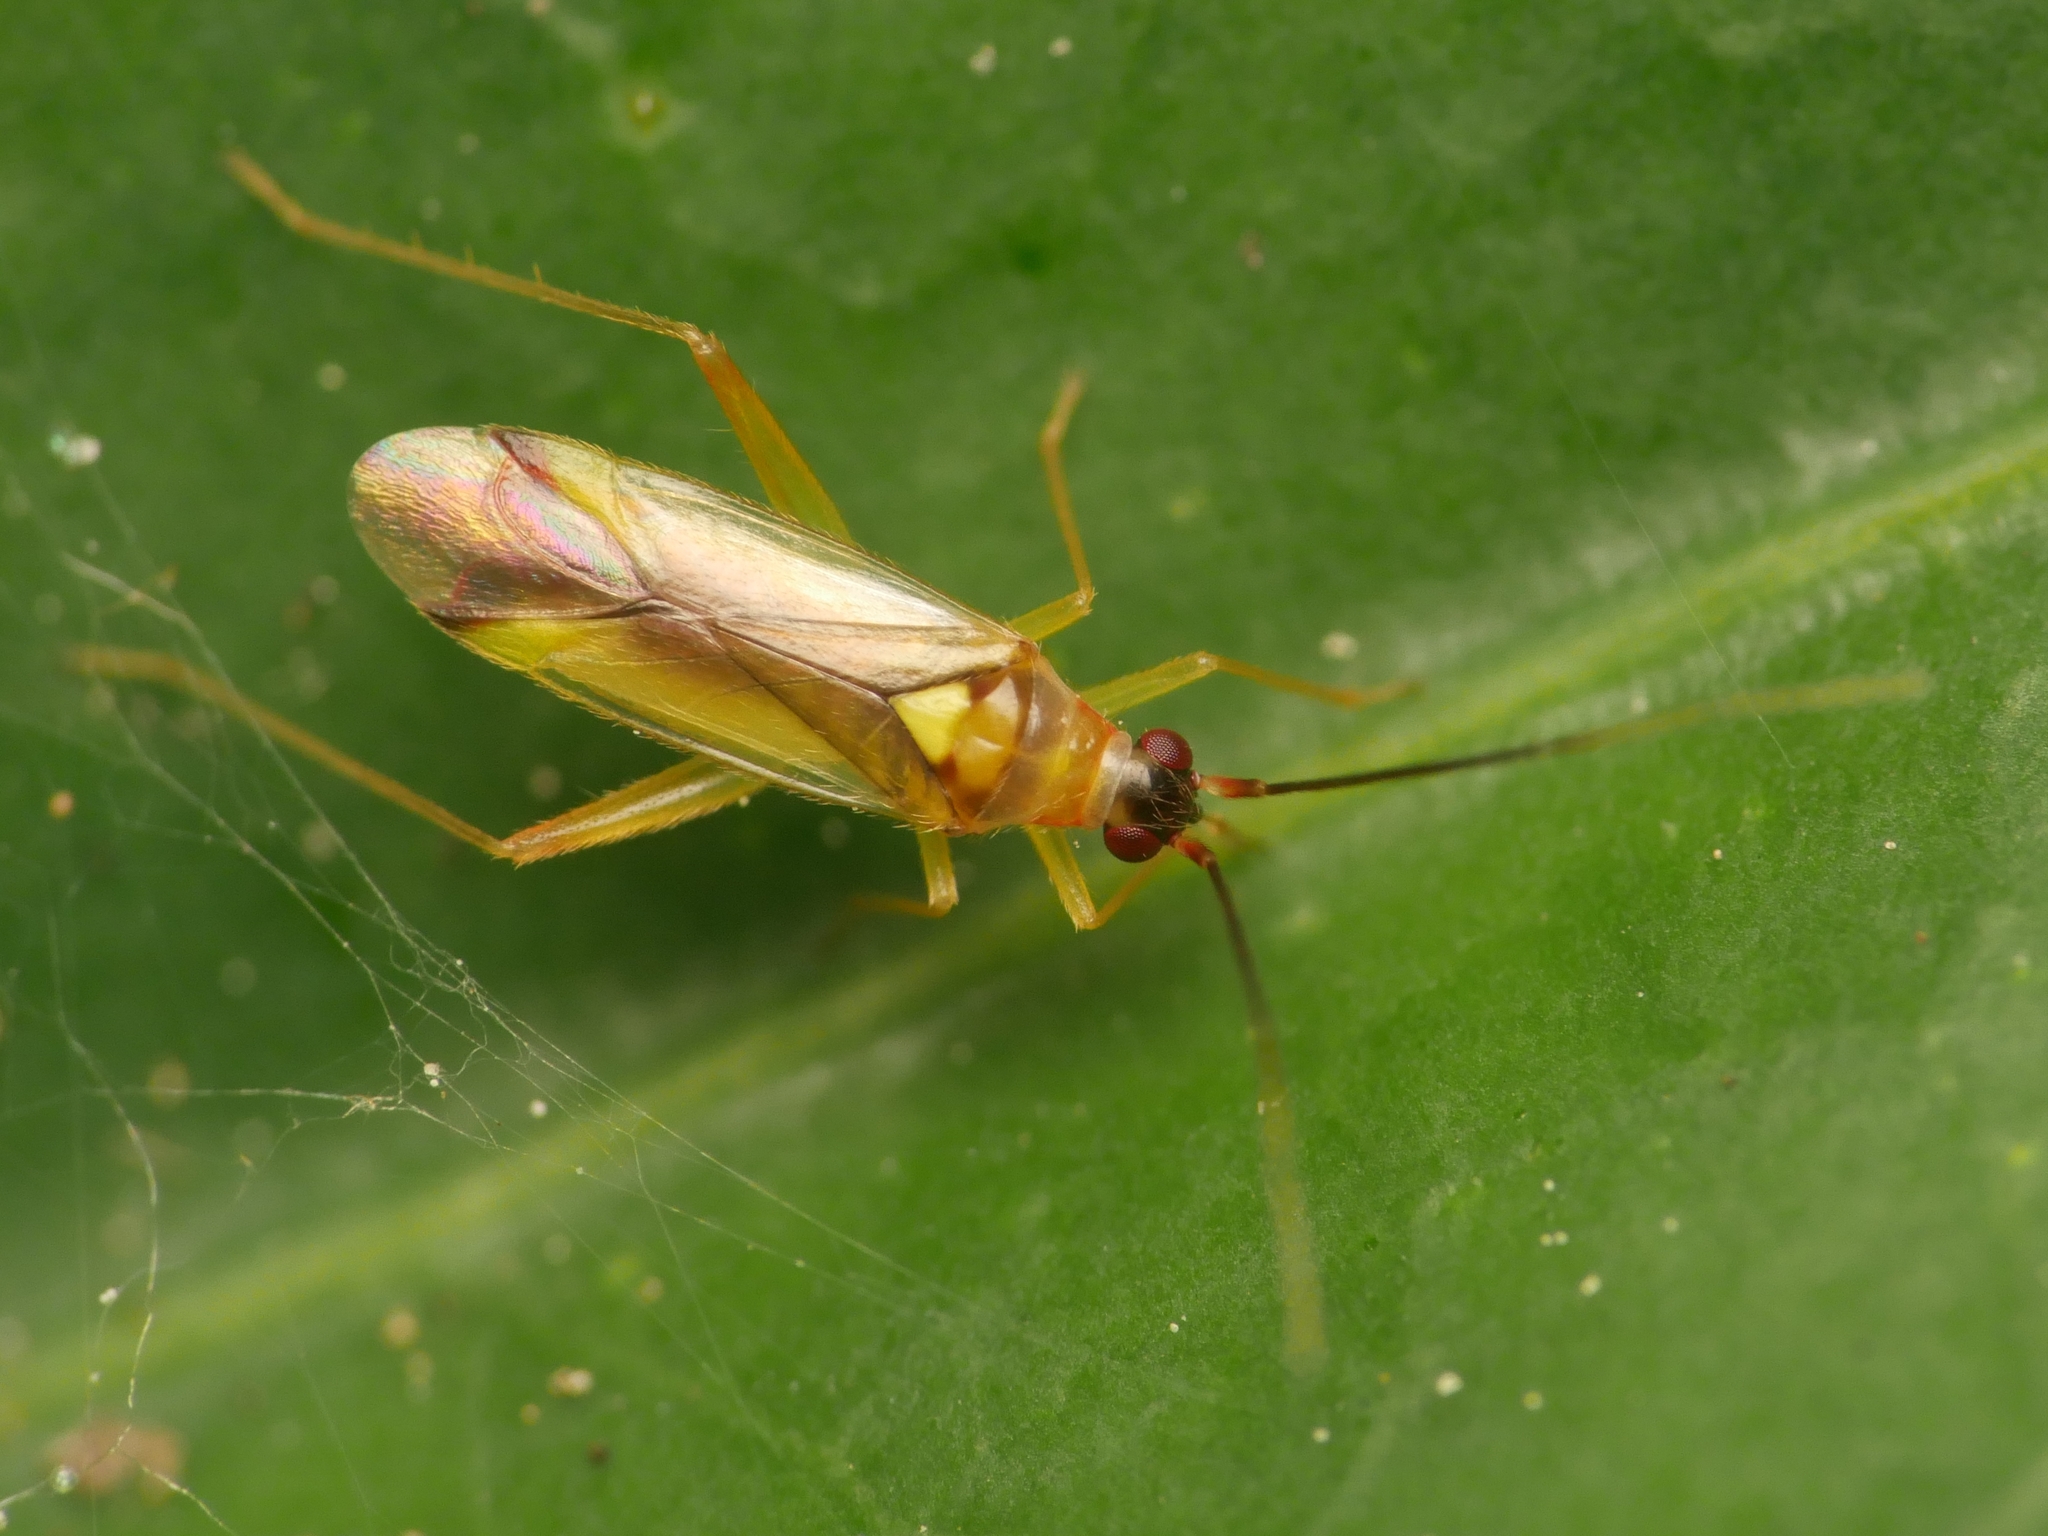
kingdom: Animalia
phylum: Arthropoda
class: Insecta
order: Hemiptera
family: Miridae
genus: Campyloneura
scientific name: Campyloneura virgula
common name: Predatory bug
